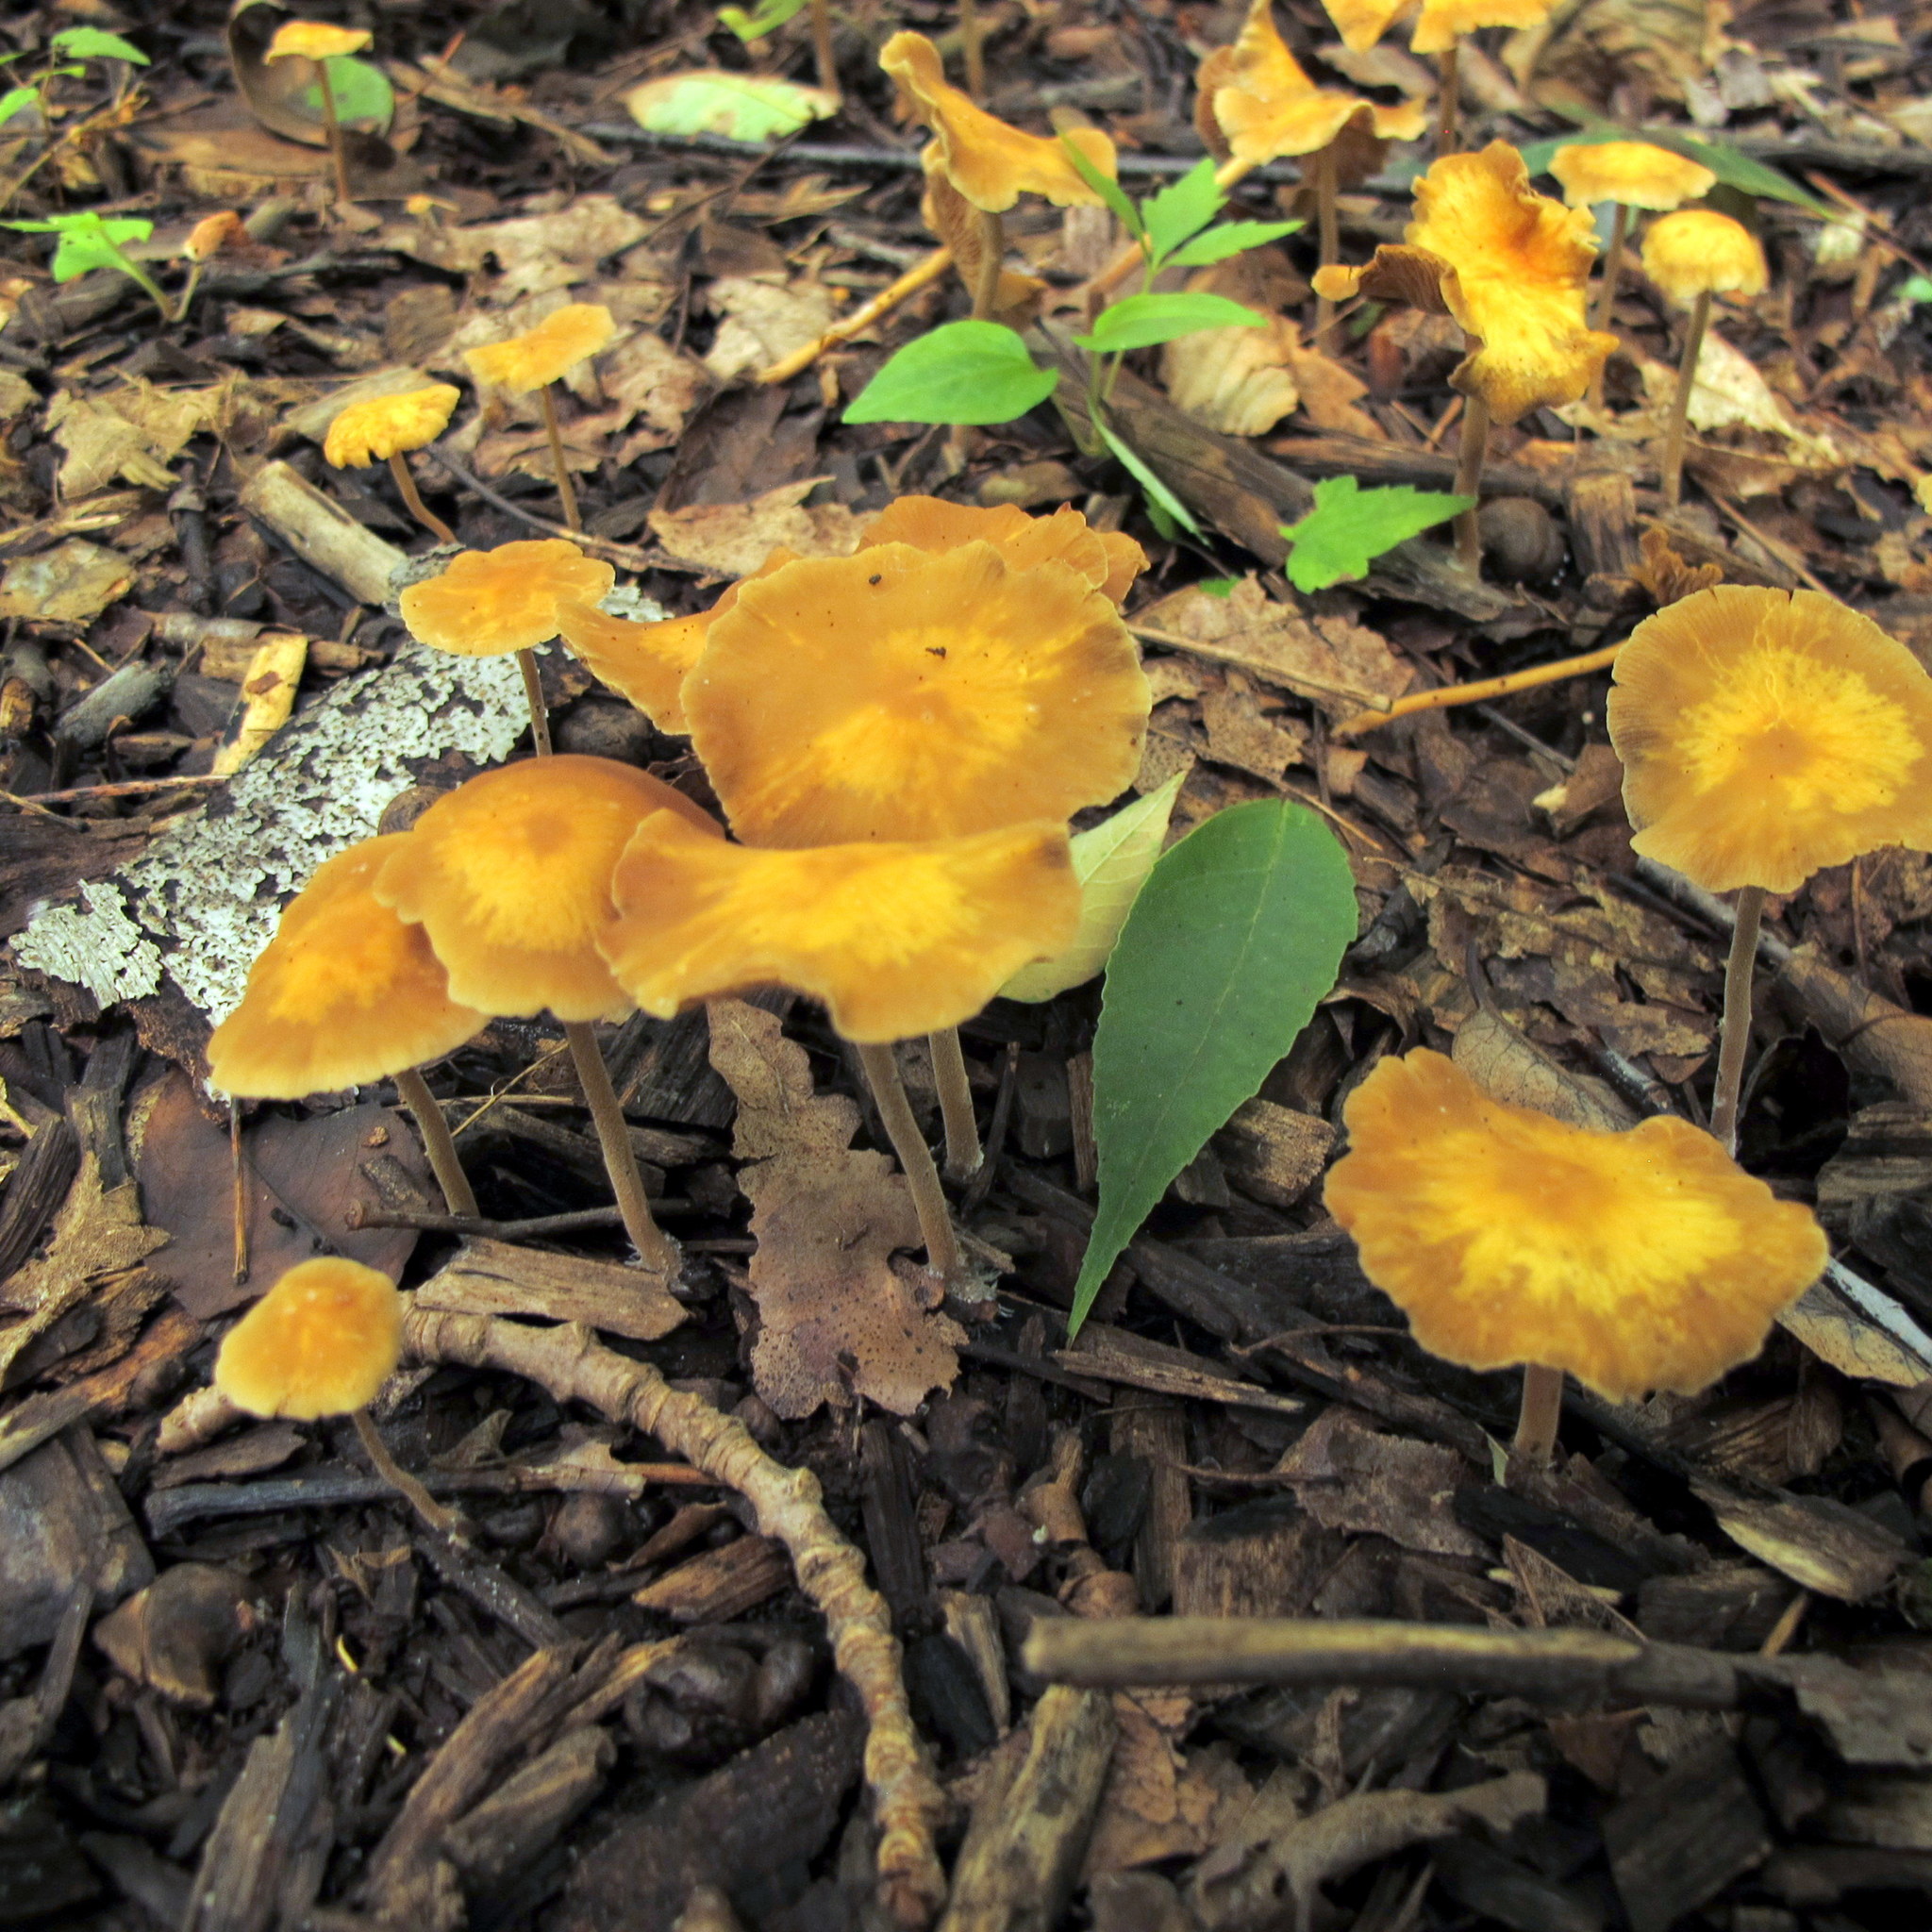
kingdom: Fungi
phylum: Basidiomycota
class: Agaricomycetes
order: Agaricales
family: Strophariaceae
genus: Agrocybe
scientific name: Agrocybe arvalis
